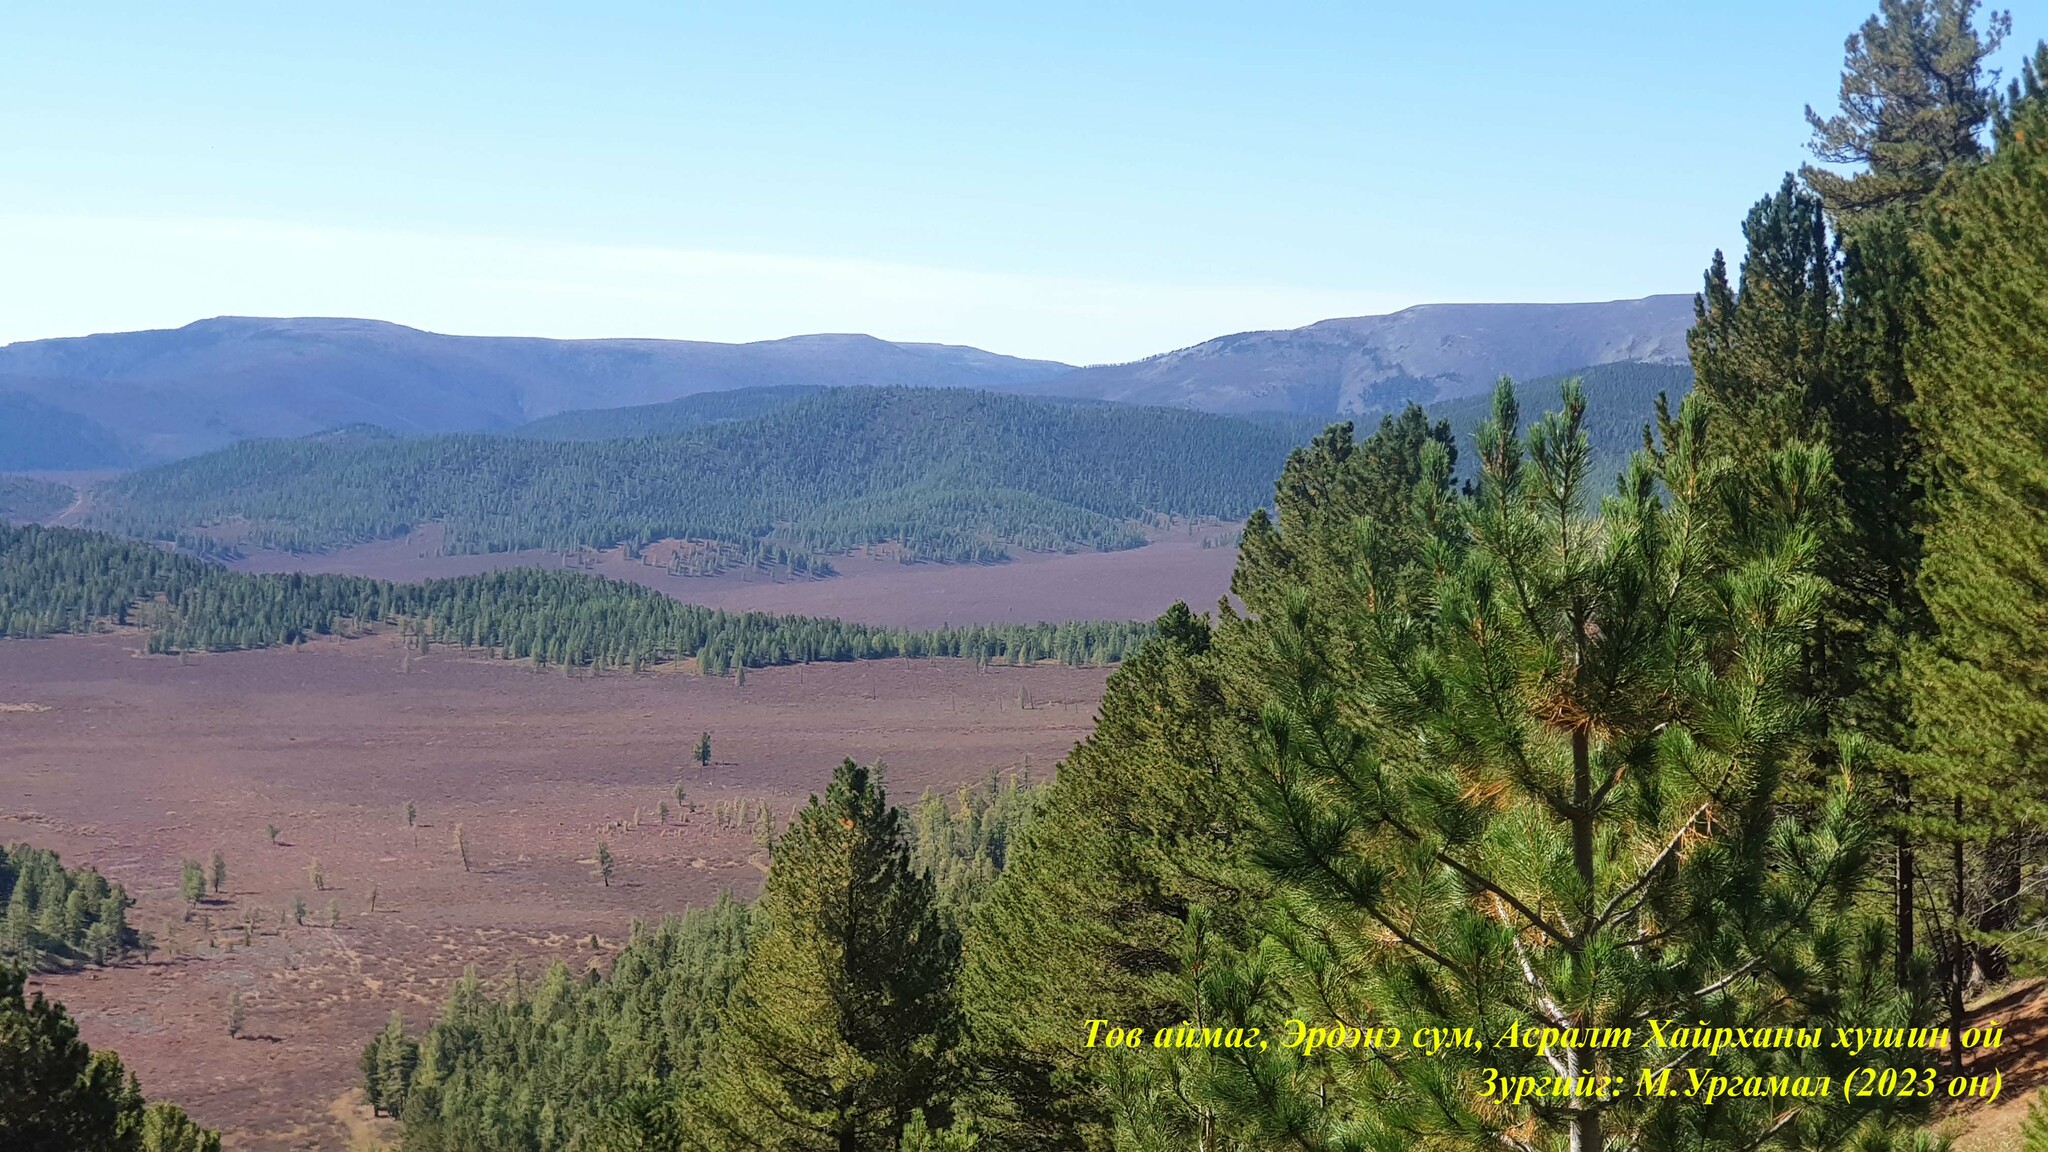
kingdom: Plantae
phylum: Tracheophyta
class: Pinopsida
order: Pinales
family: Pinaceae
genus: Pinus
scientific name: Pinus sibirica
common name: Siberian pine
